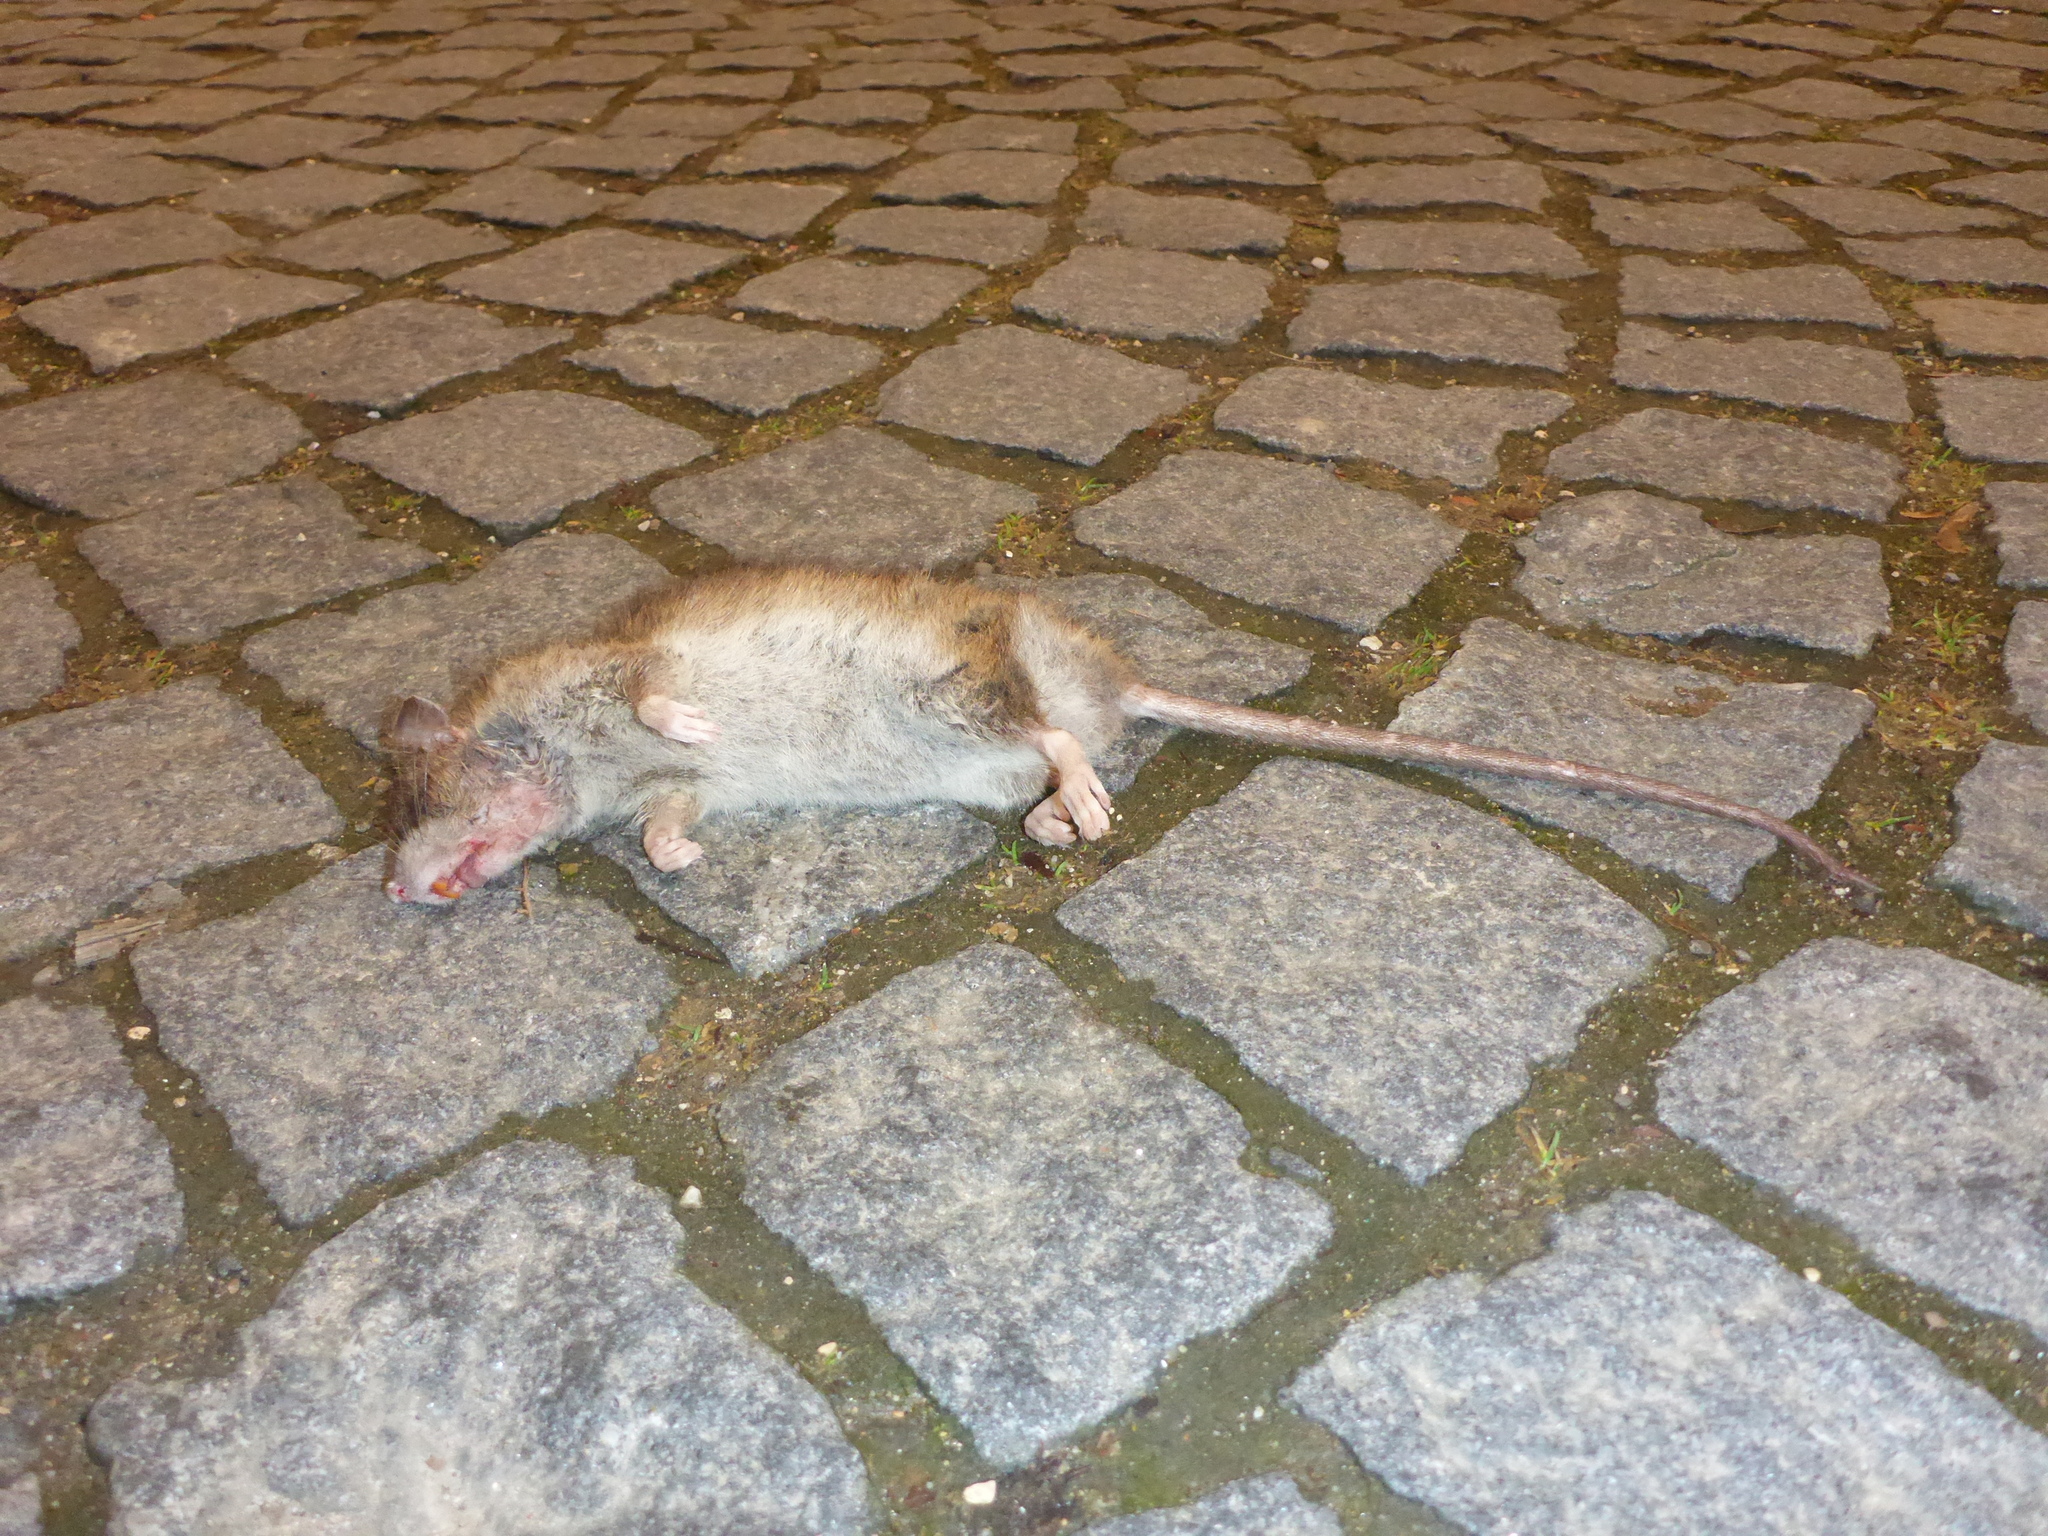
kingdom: Animalia
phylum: Chordata
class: Mammalia
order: Rodentia
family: Muridae
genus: Rattus
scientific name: Rattus norvegicus
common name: Brown rat
